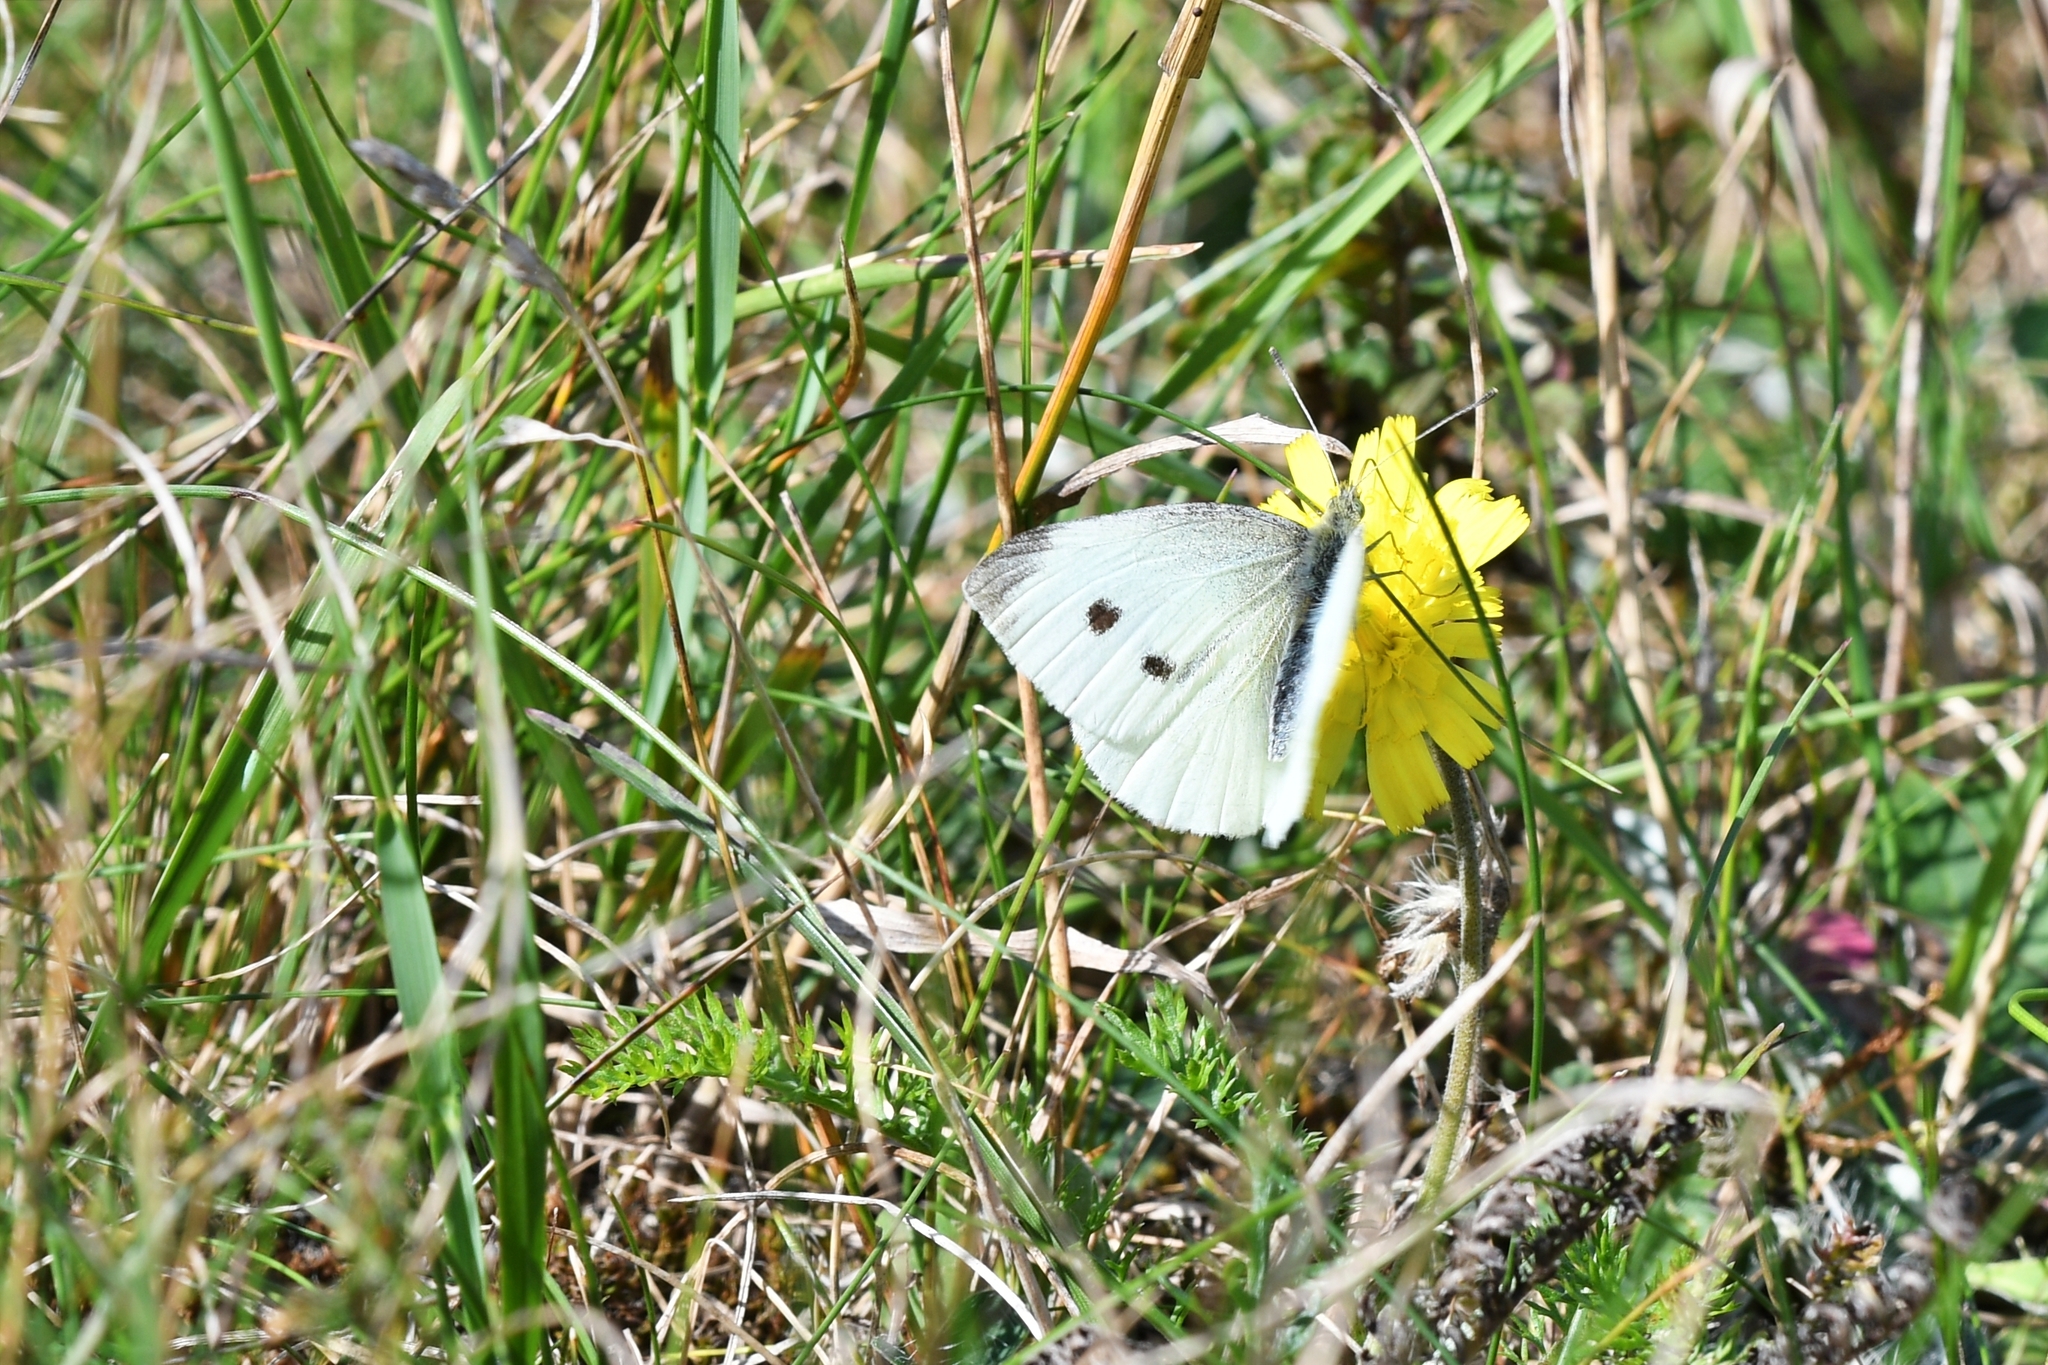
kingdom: Animalia
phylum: Arthropoda
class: Insecta
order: Lepidoptera
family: Pieridae
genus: Pieris
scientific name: Pieris rapae
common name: Small white
